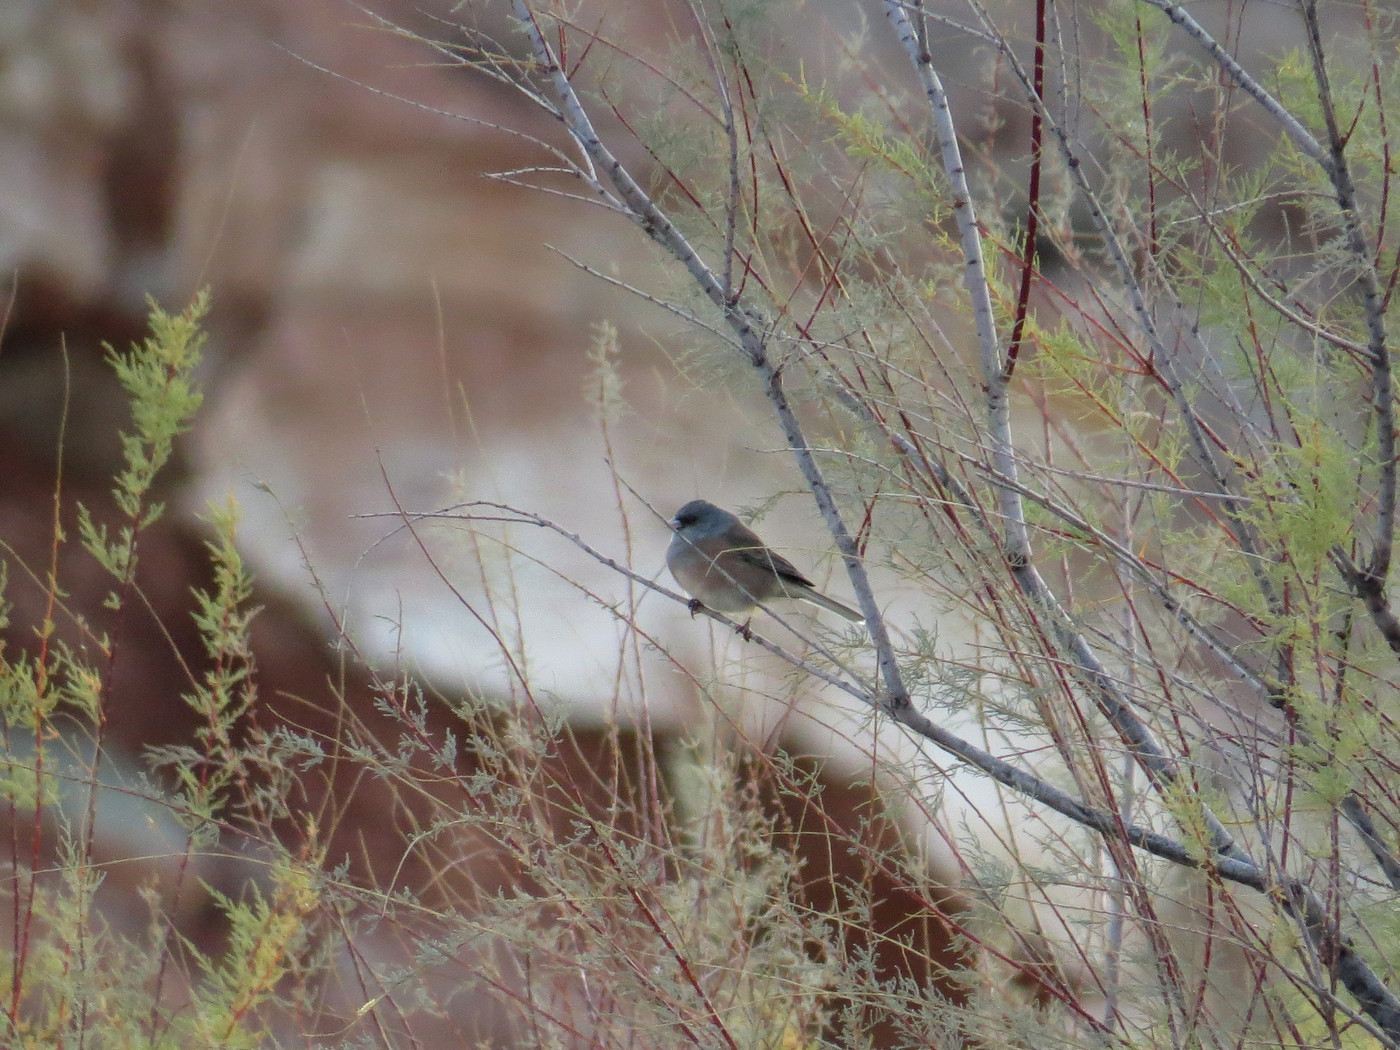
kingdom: Animalia
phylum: Chordata
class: Aves
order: Passeriformes
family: Passerellidae
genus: Junco
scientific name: Junco hyemalis
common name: Dark-eyed junco
